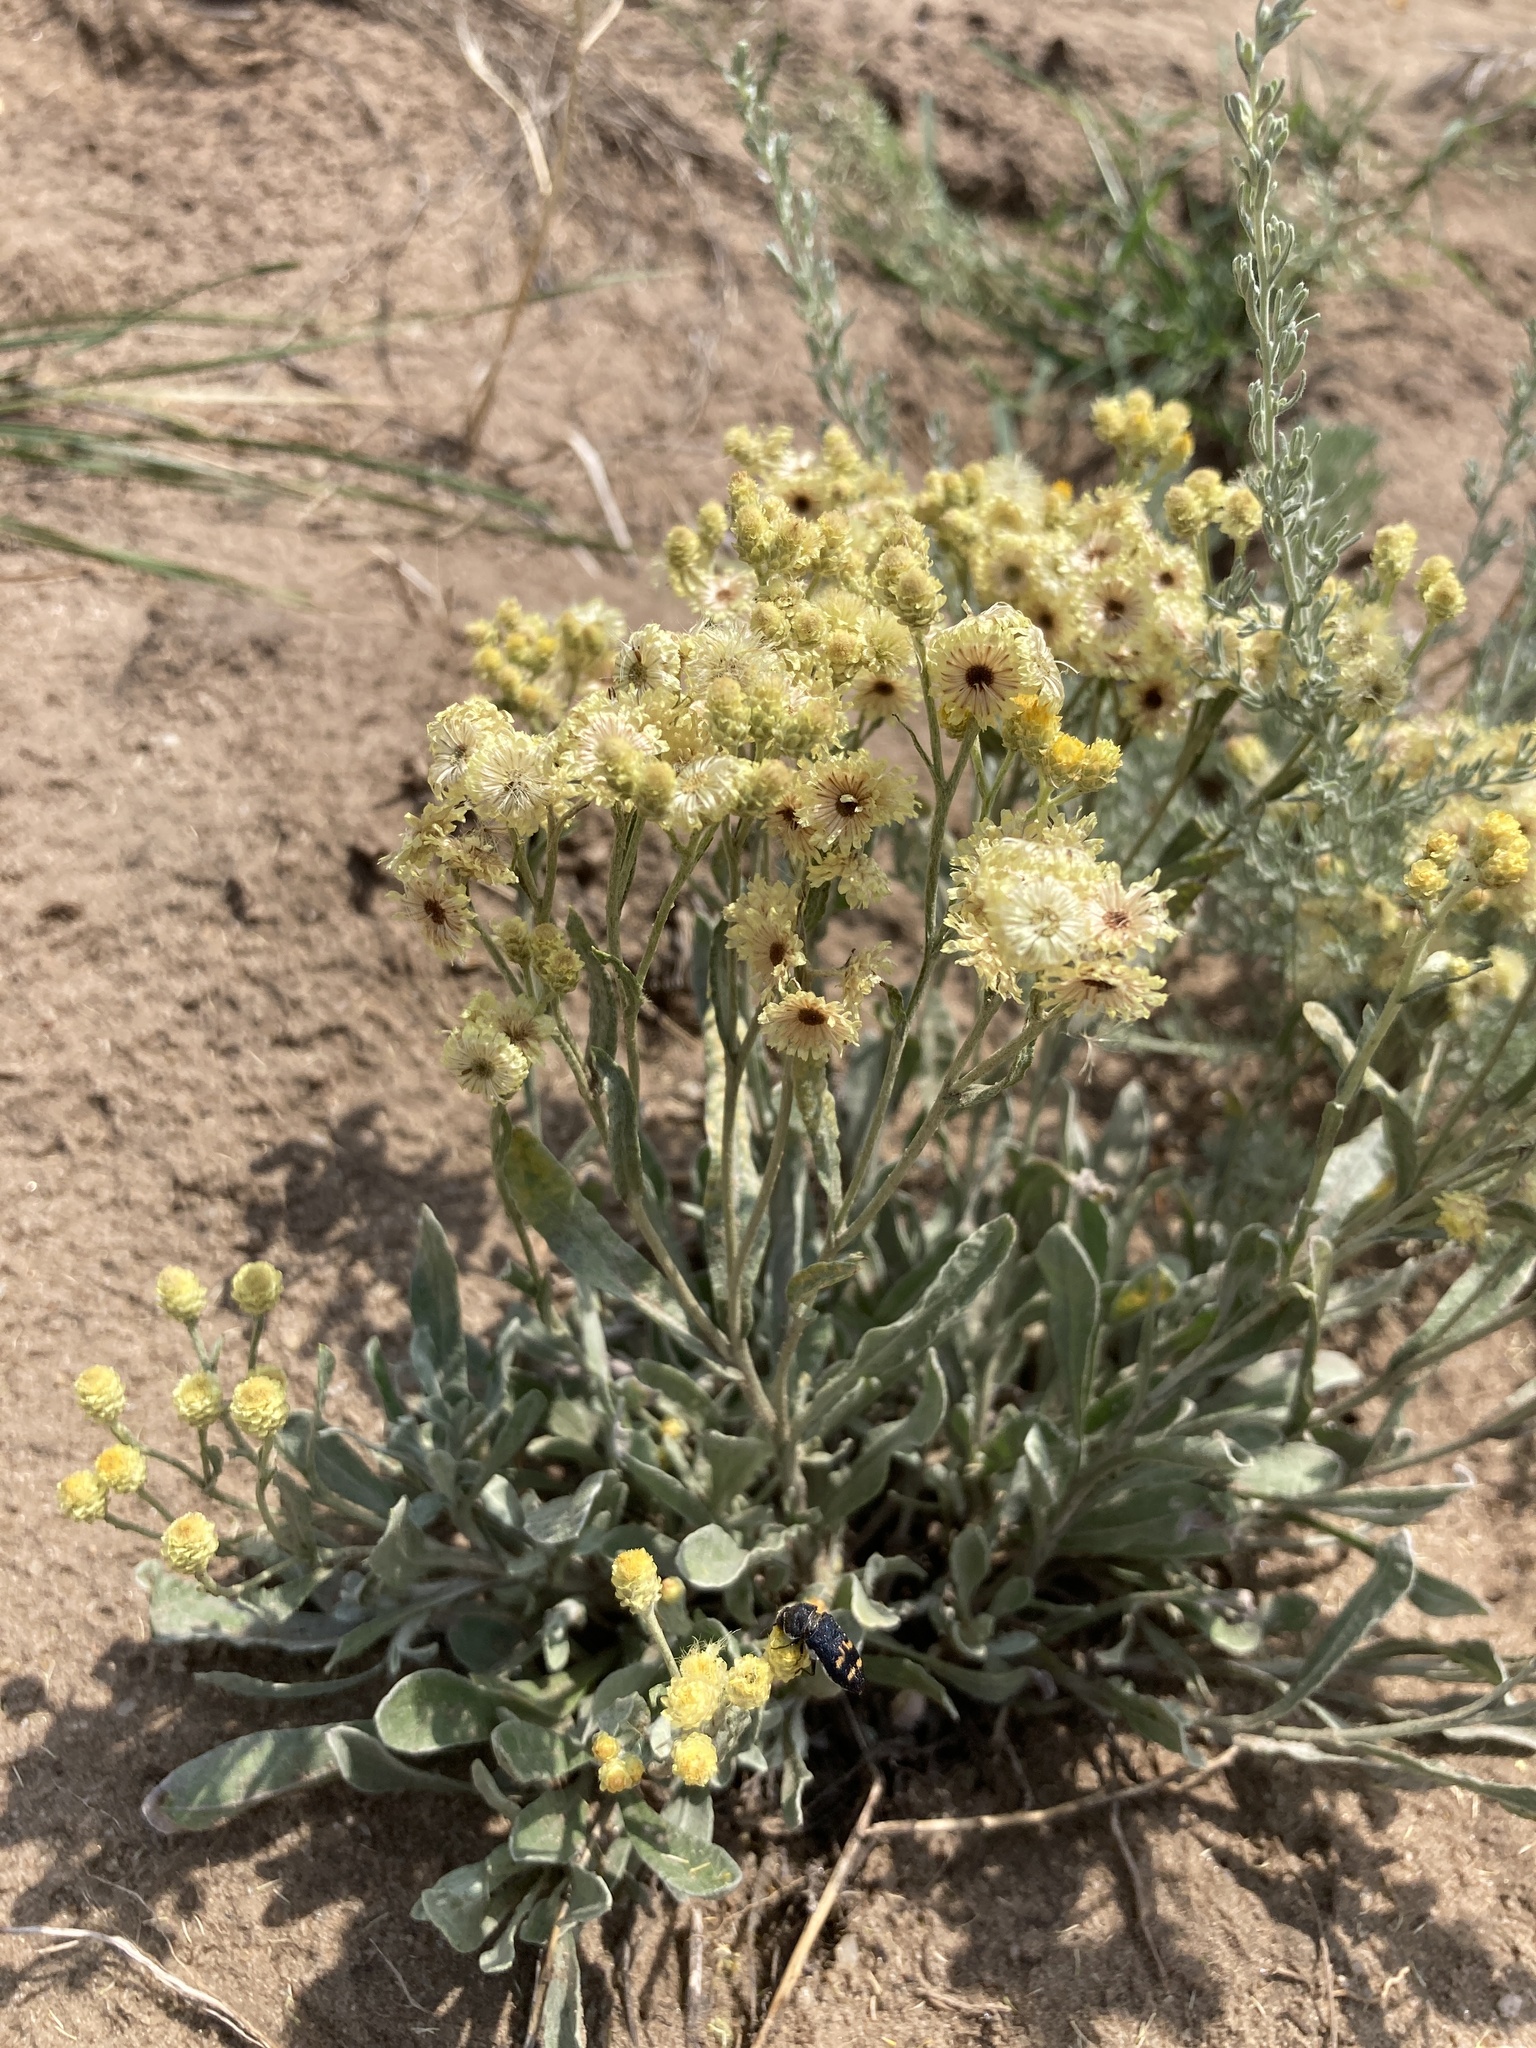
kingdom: Plantae
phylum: Tracheophyta
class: Magnoliopsida
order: Asterales
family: Asteraceae
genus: Helichrysum
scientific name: Helichrysum arenarium
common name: Strawflower
